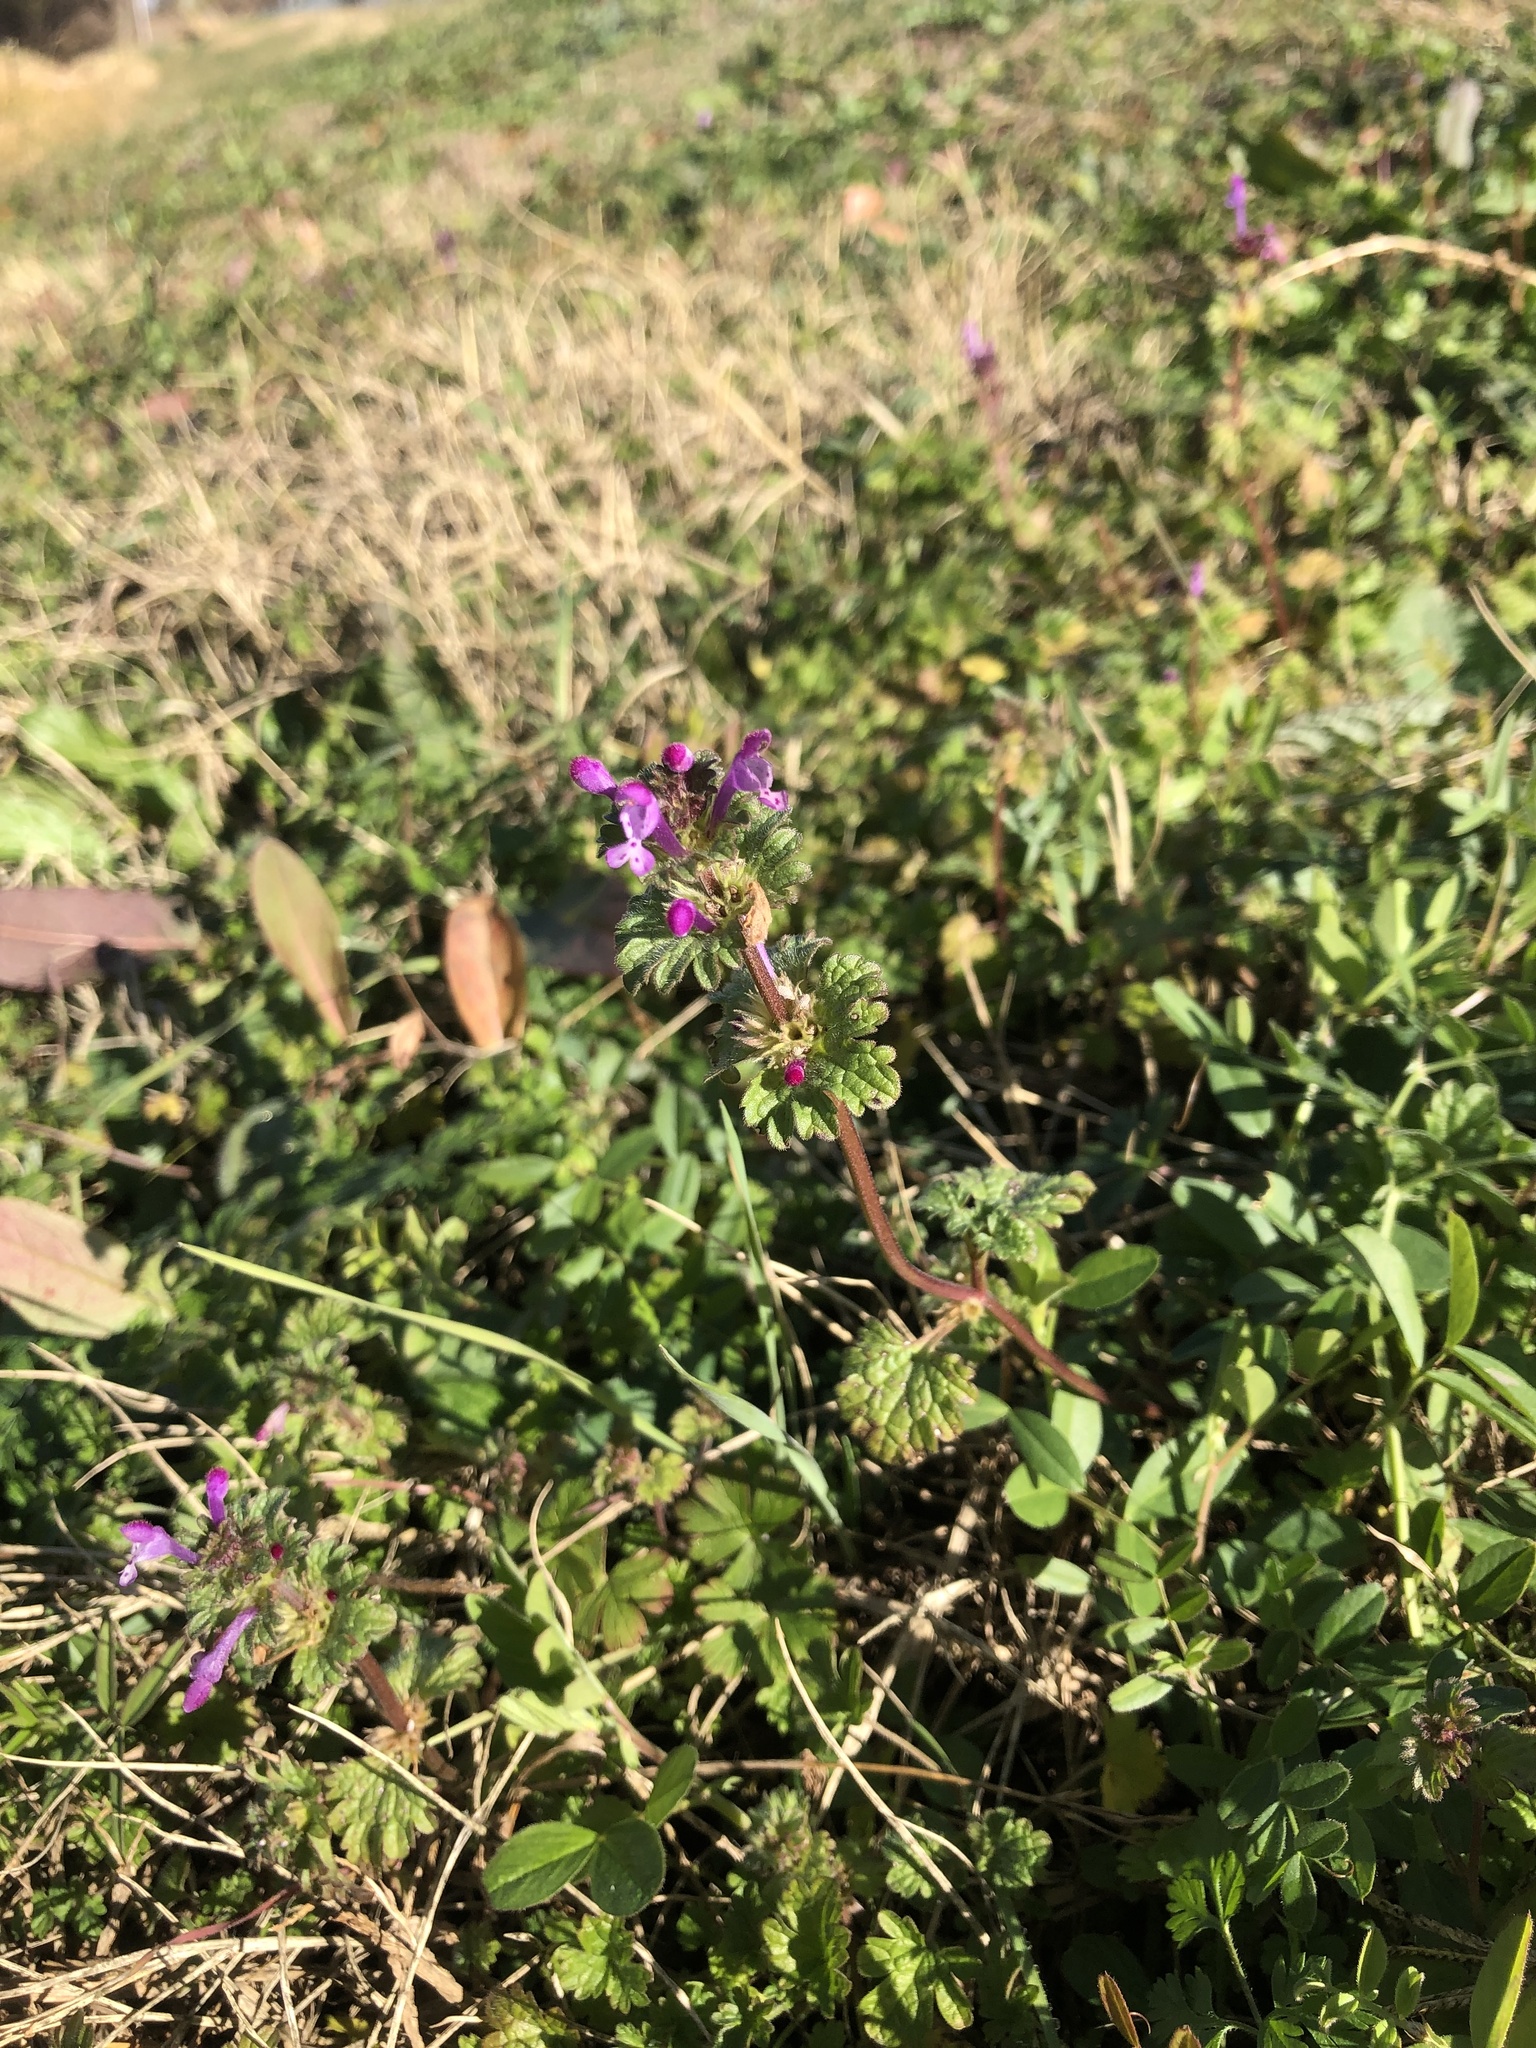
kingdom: Plantae
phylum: Tracheophyta
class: Magnoliopsida
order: Lamiales
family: Lamiaceae
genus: Lamium
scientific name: Lamium amplexicaule
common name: Henbit dead-nettle
